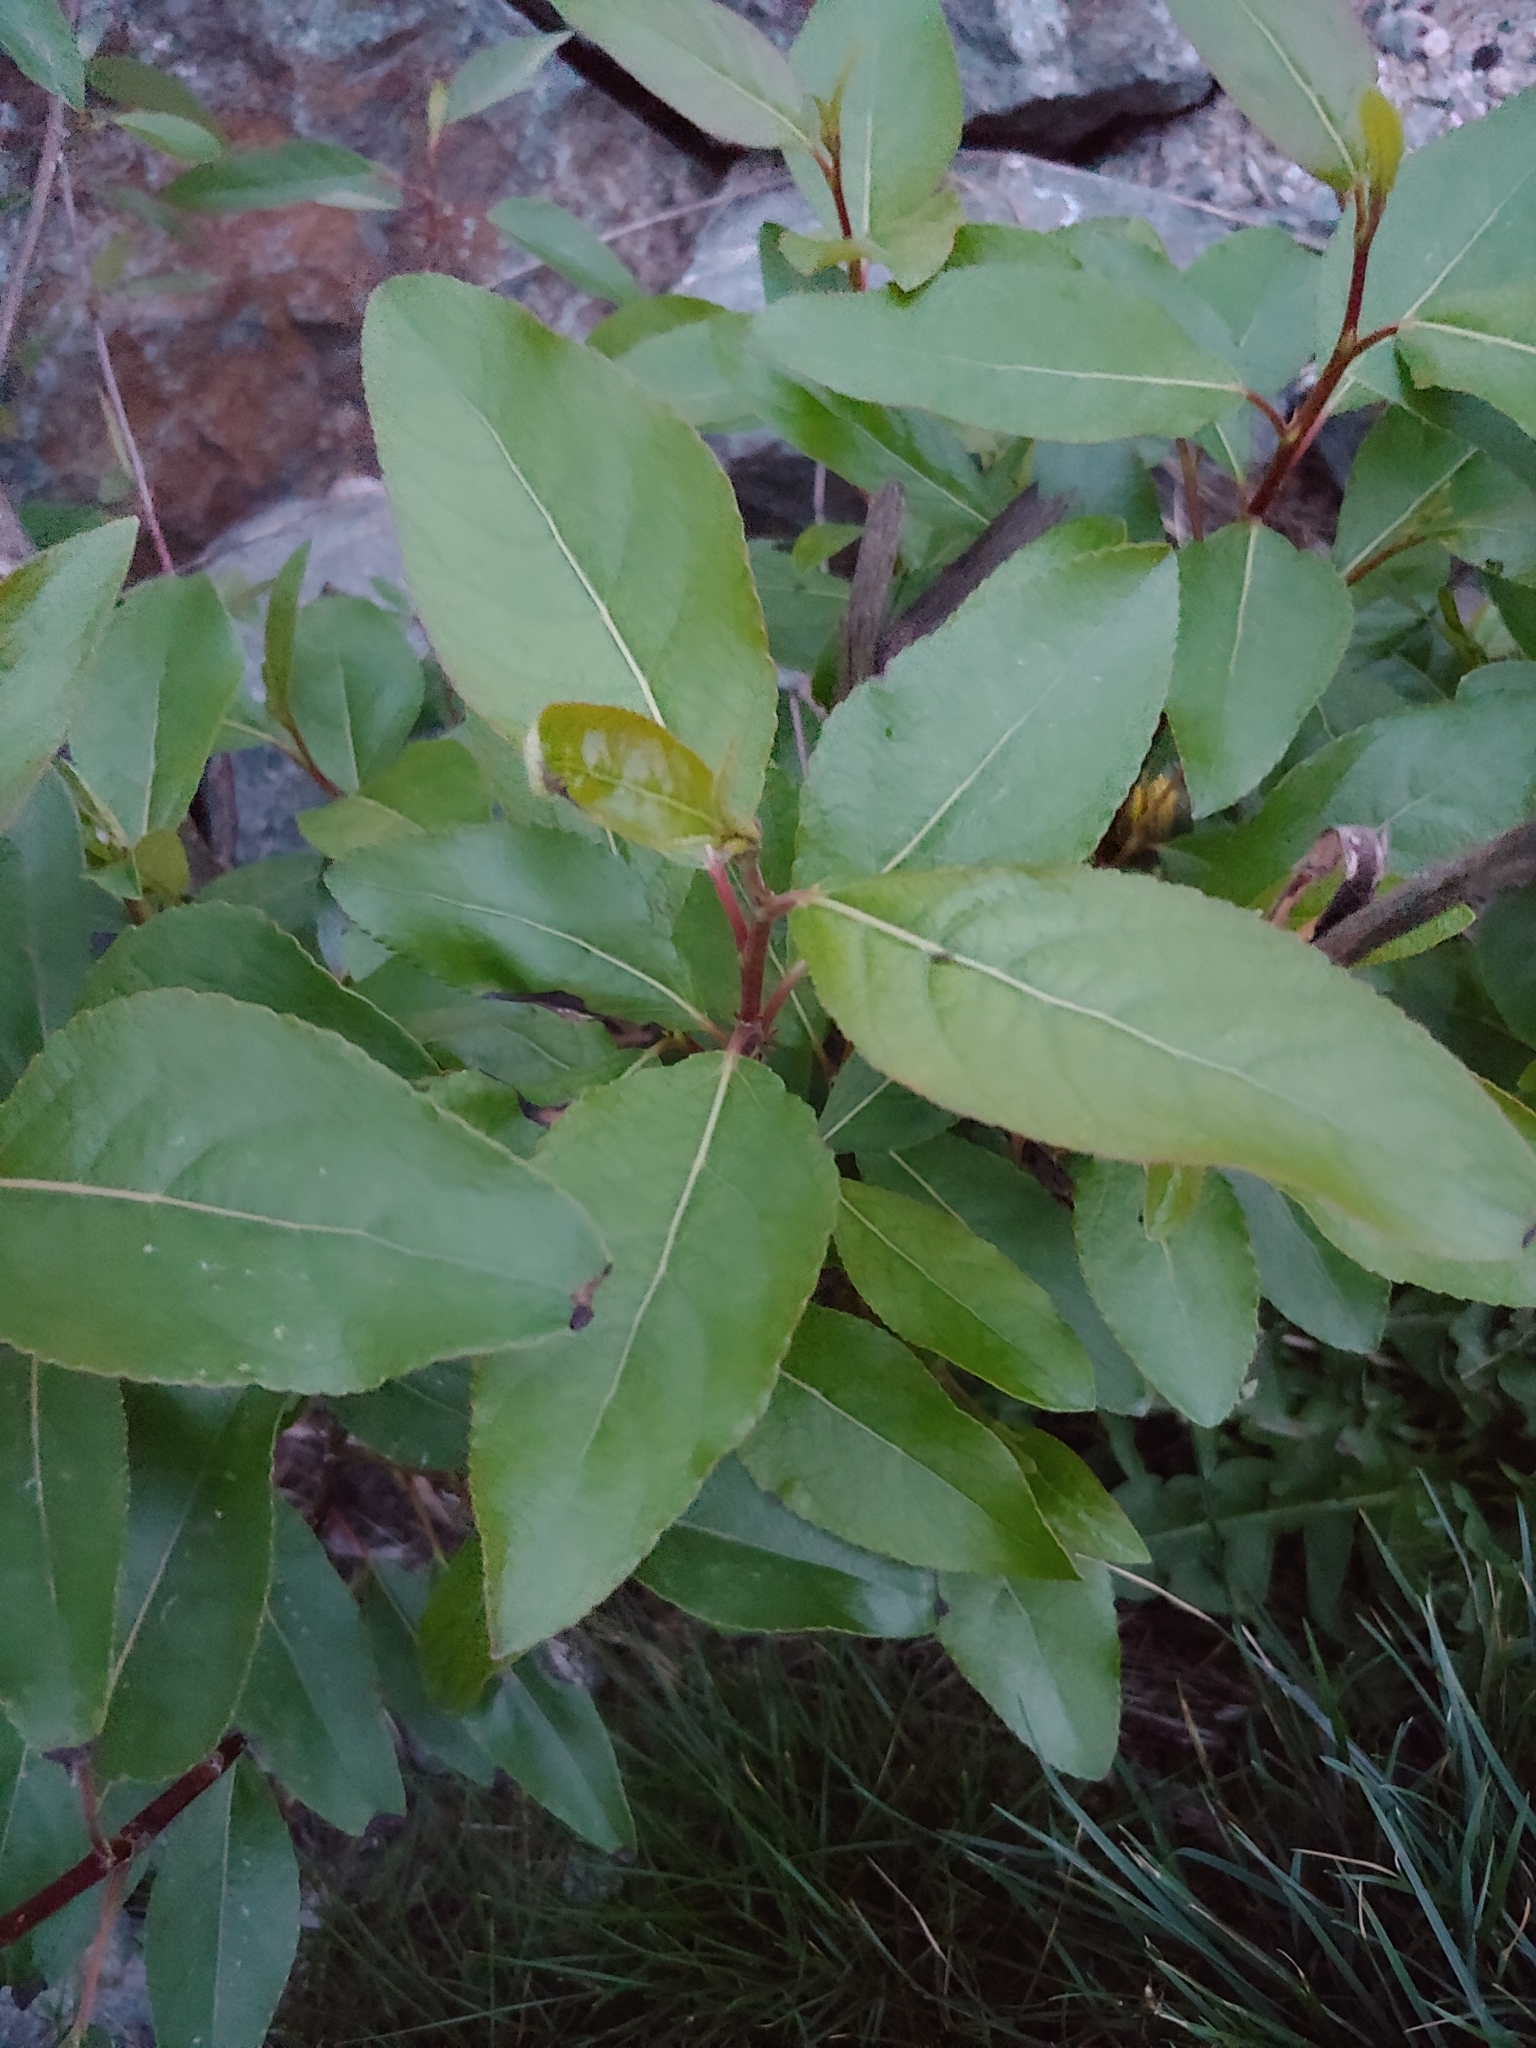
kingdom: Plantae
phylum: Tracheophyta
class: Magnoliopsida
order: Malpighiales
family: Salicaceae
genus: Populus
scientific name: Populus trichocarpa
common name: Black cottonwood
